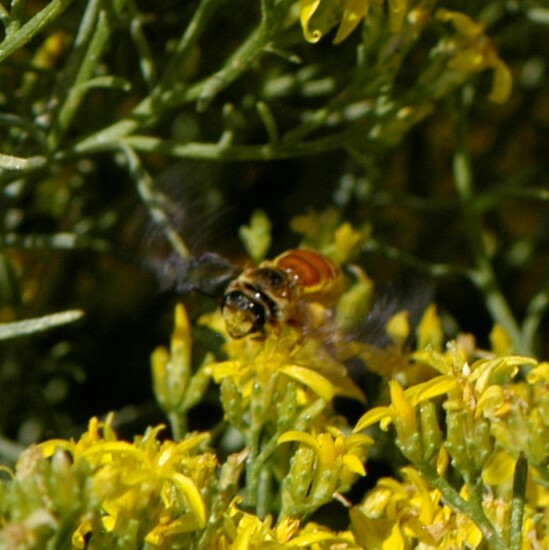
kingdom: Animalia
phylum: Arthropoda
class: Insecta
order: Hymenoptera
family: Halictidae
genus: Dieunomia
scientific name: Dieunomia nevadensis
